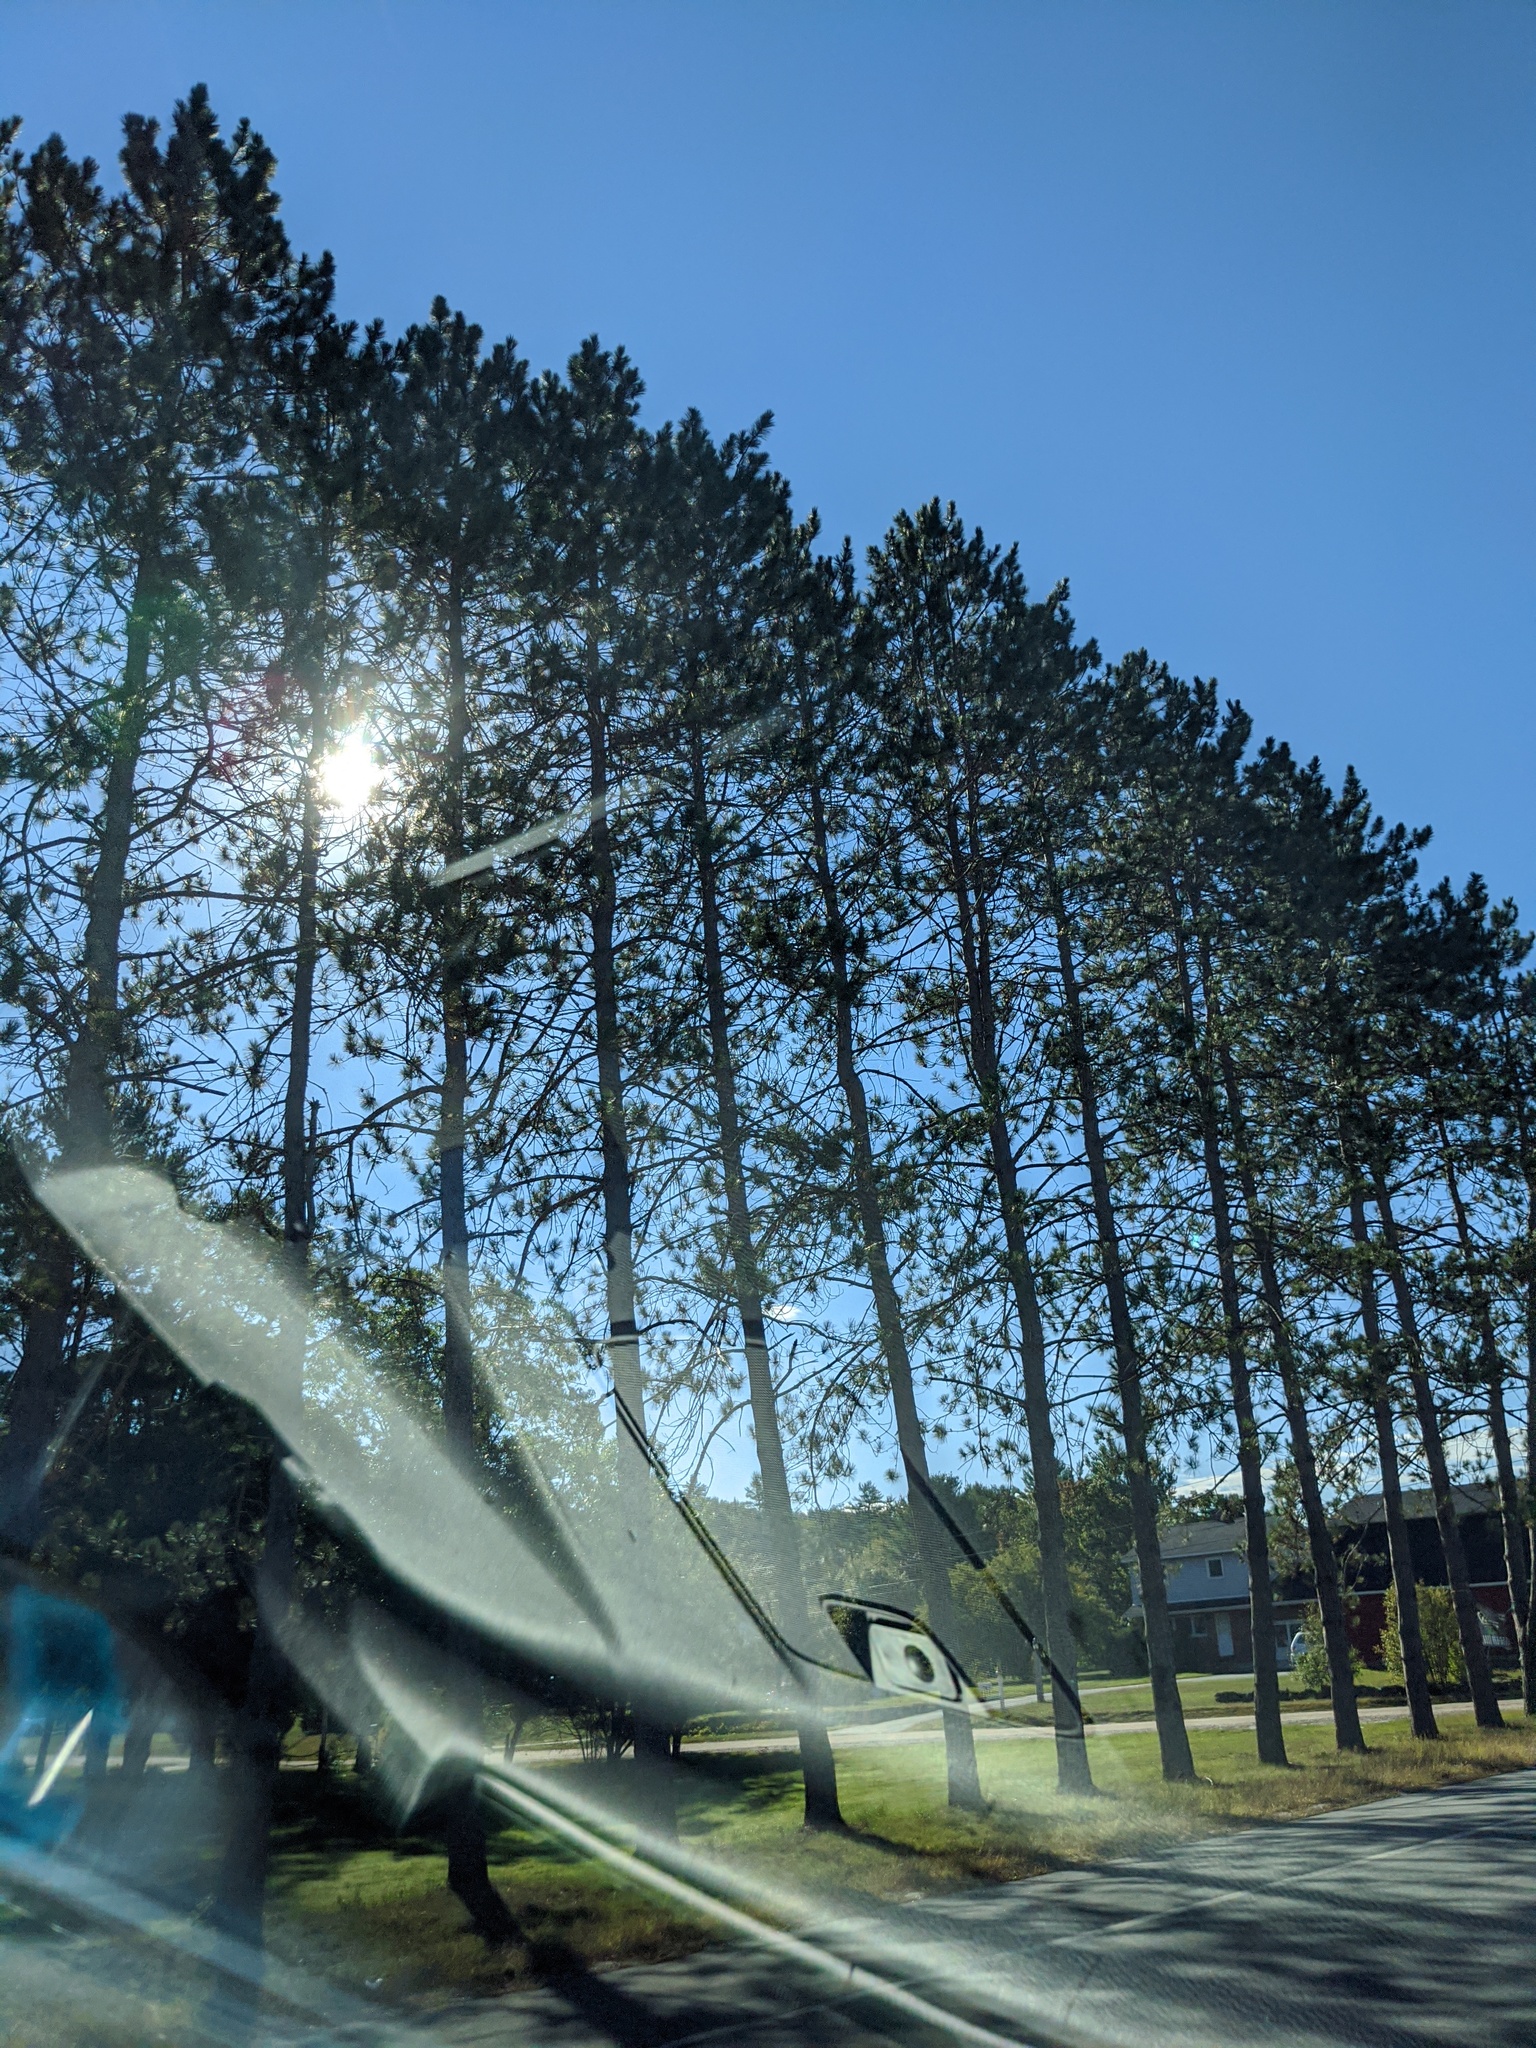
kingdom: Plantae
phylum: Tracheophyta
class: Pinopsida
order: Pinales
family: Pinaceae
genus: Pinus
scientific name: Pinus resinosa
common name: Norway pine
